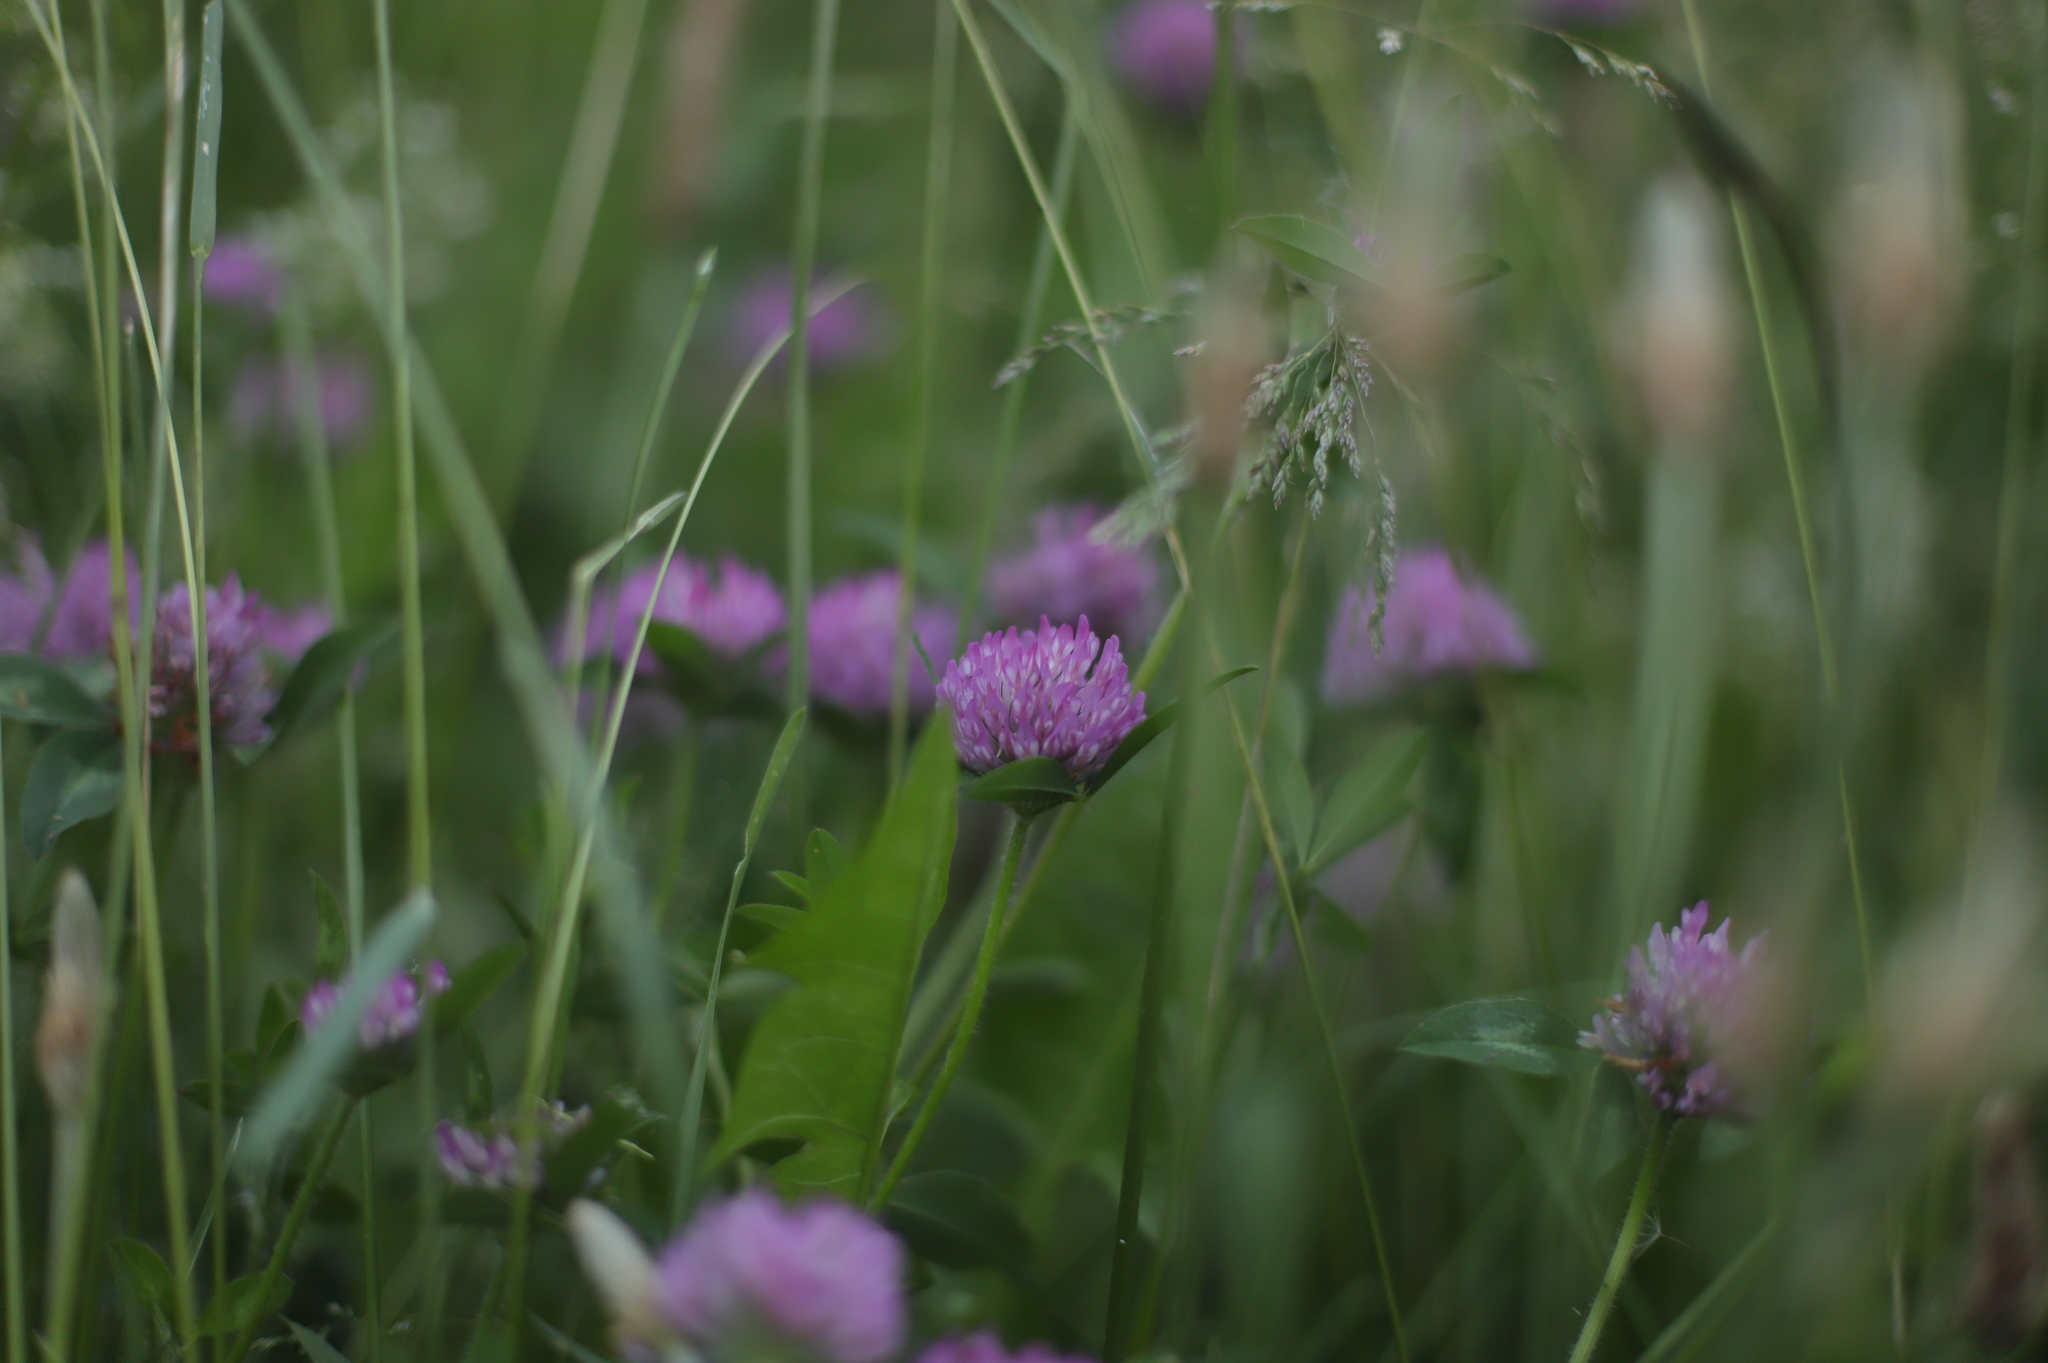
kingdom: Plantae
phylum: Tracheophyta
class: Magnoliopsida
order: Fabales
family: Fabaceae
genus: Trifolium
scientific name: Trifolium pratense
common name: Red clover
